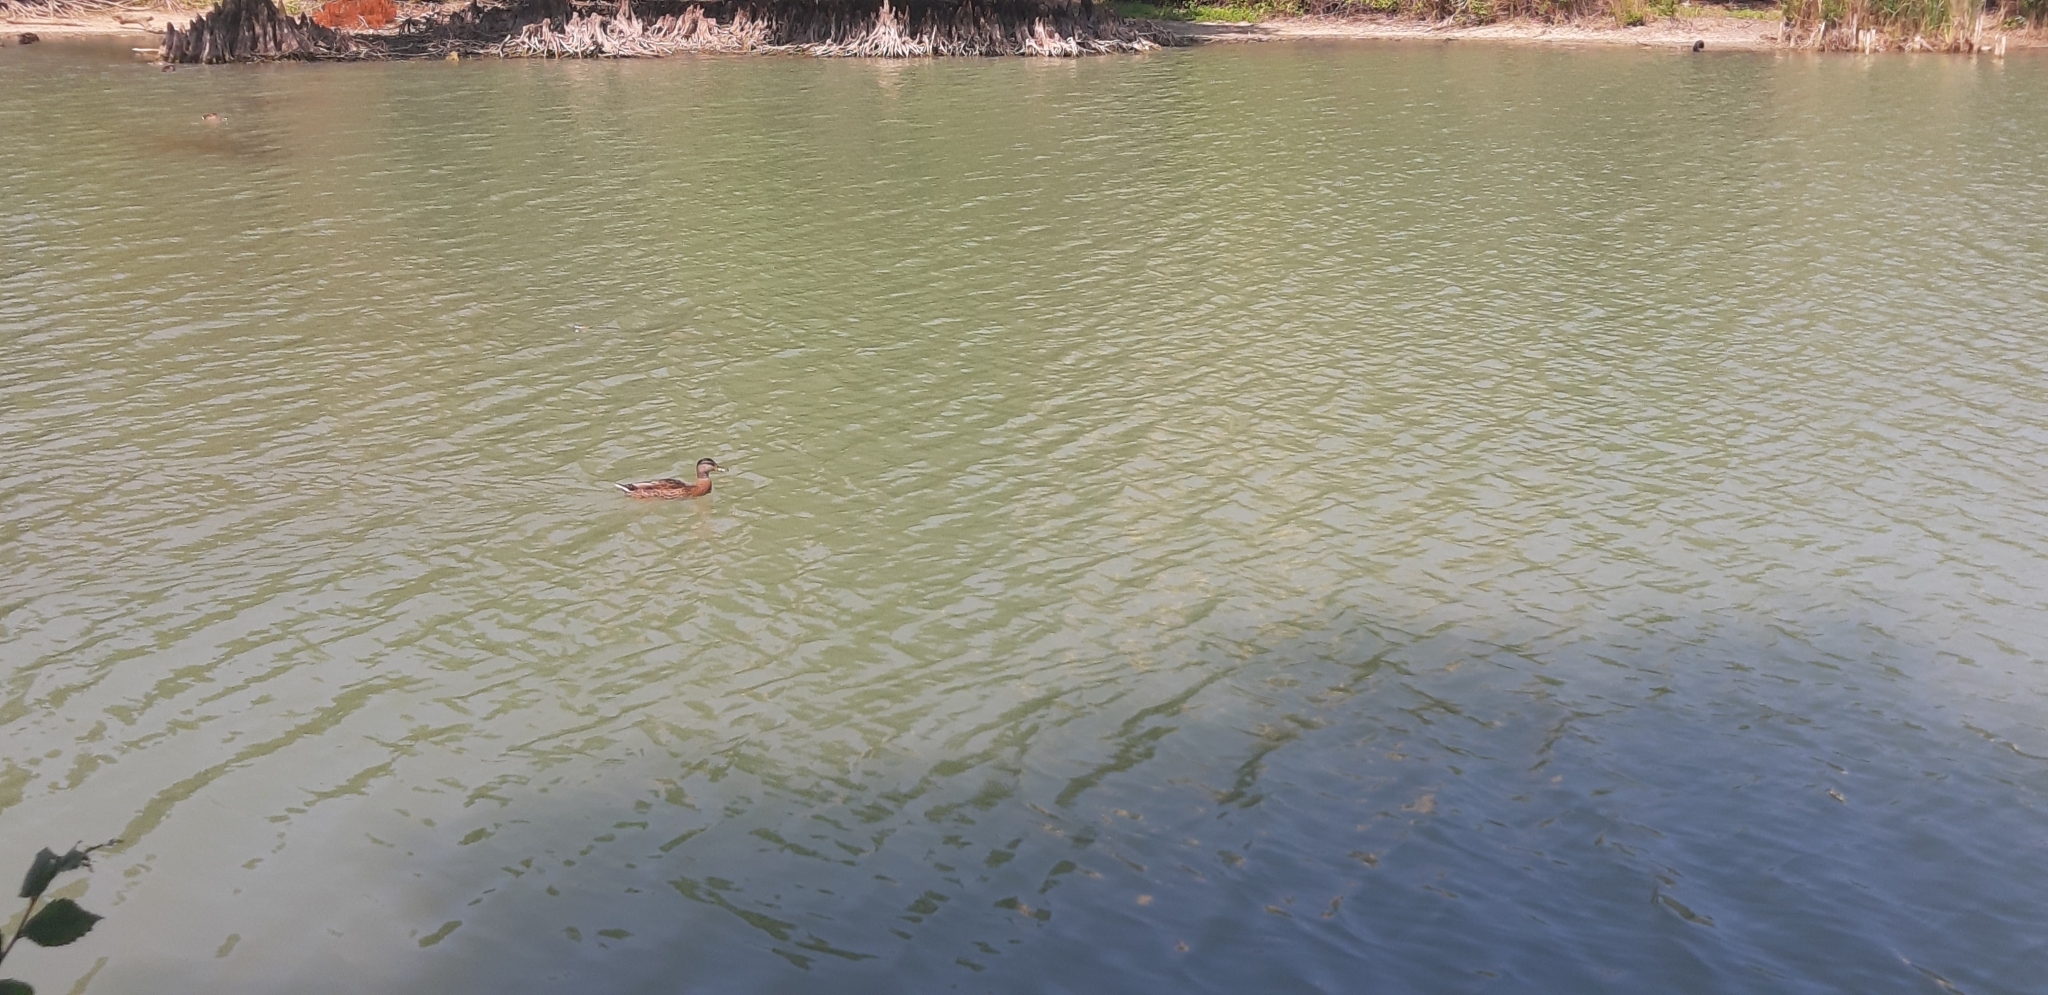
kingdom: Animalia
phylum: Chordata
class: Aves
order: Anseriformes
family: Anatidae
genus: Anas
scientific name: Anas platyrhynchos
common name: Mallard
